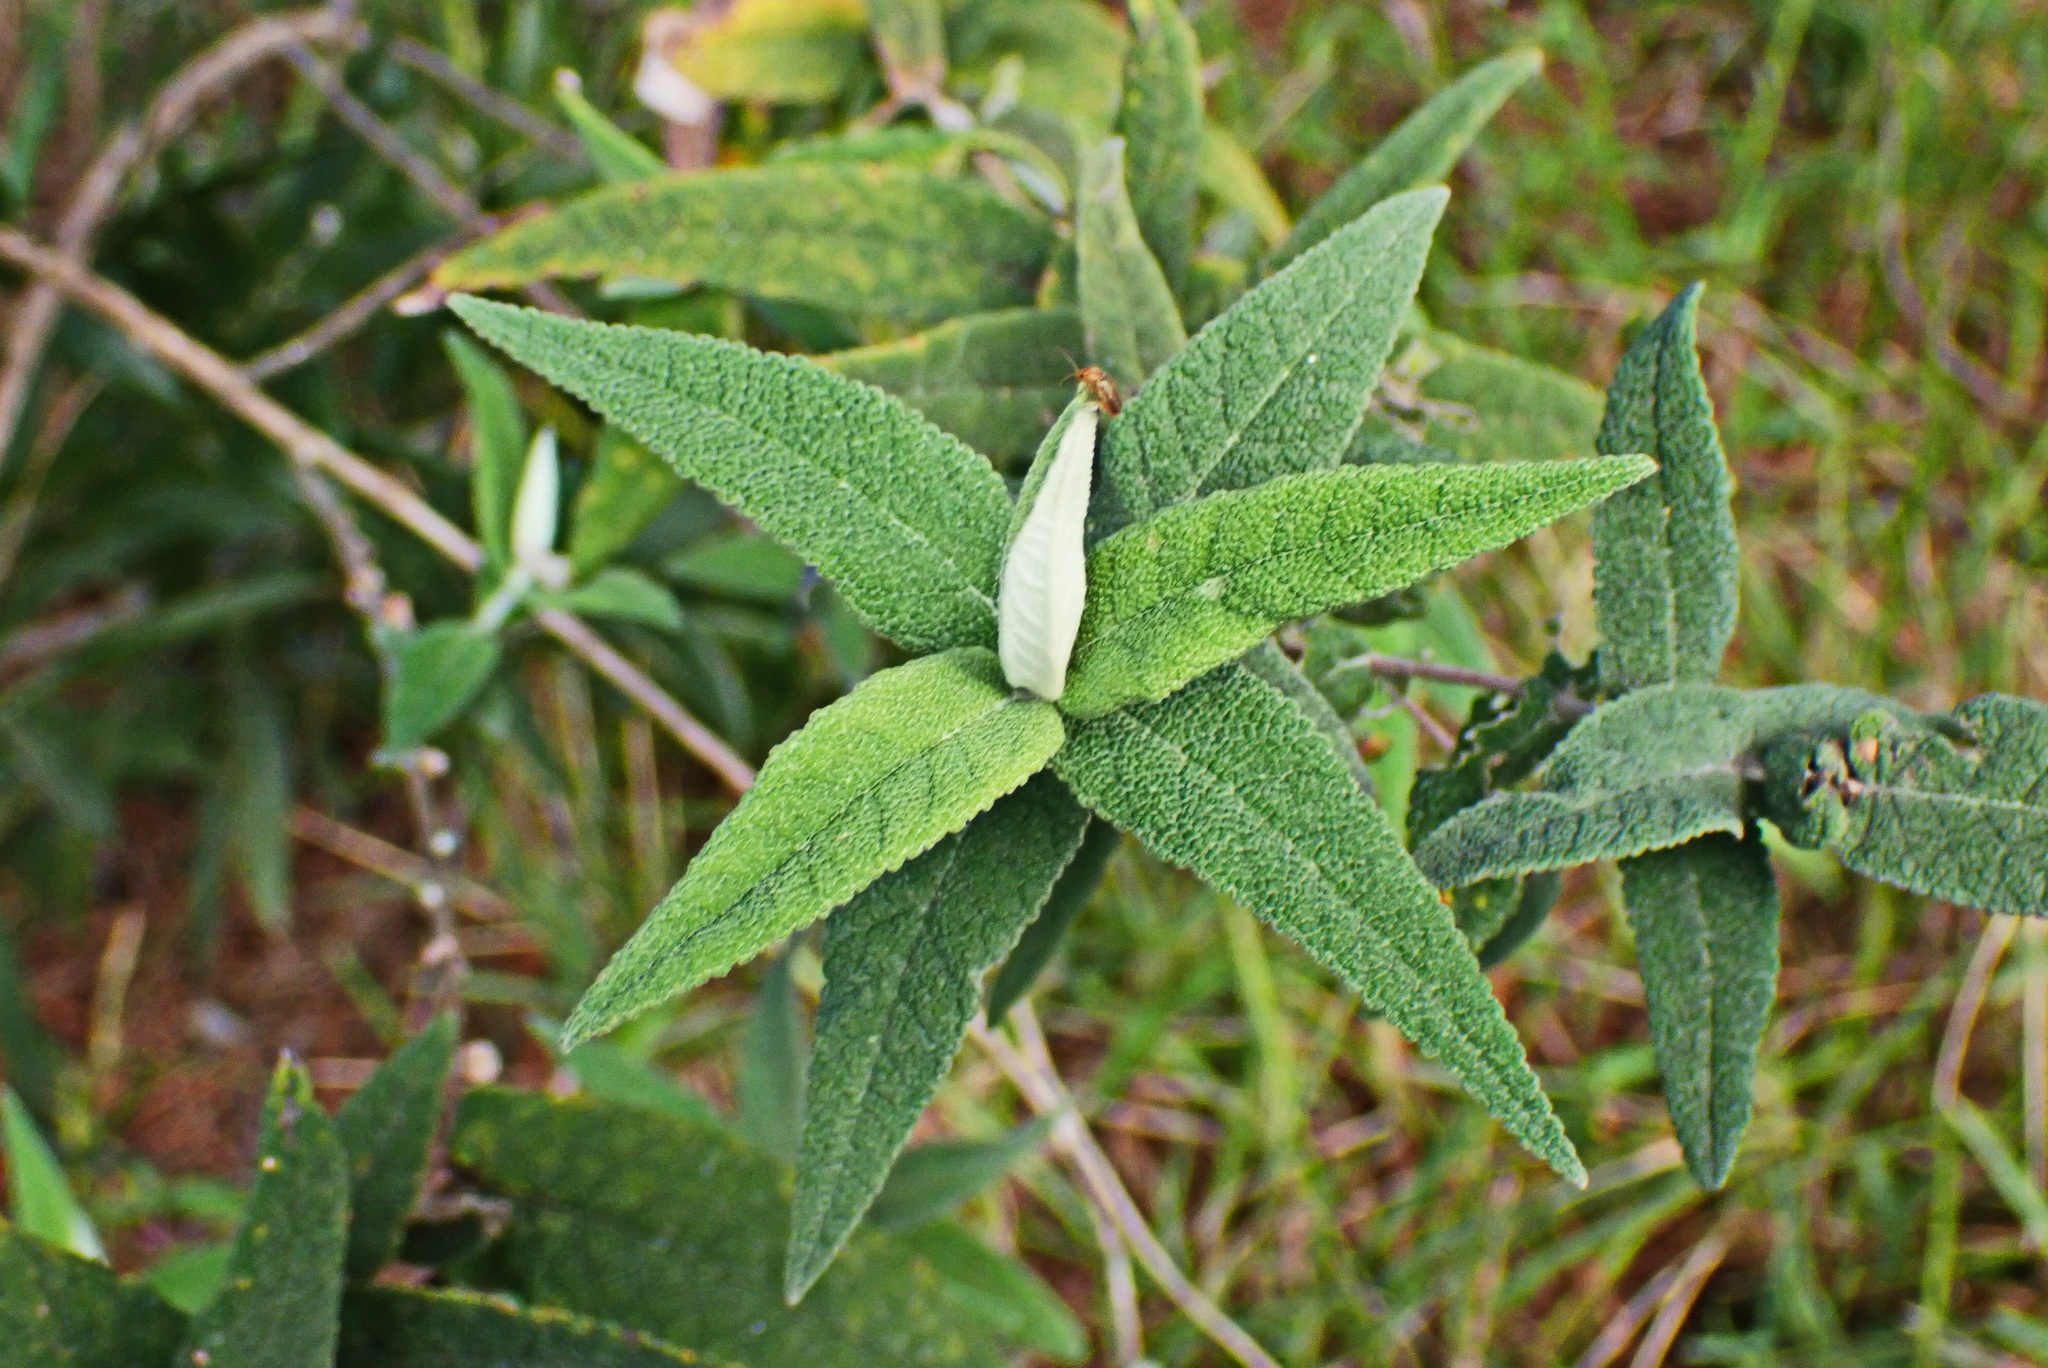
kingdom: Plantae
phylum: Tracheophyta
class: Magnoliopsida
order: Lamiales
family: Scrophulariaceae
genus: Buddleja
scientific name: Buddleja salviifolia
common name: Sagewood
